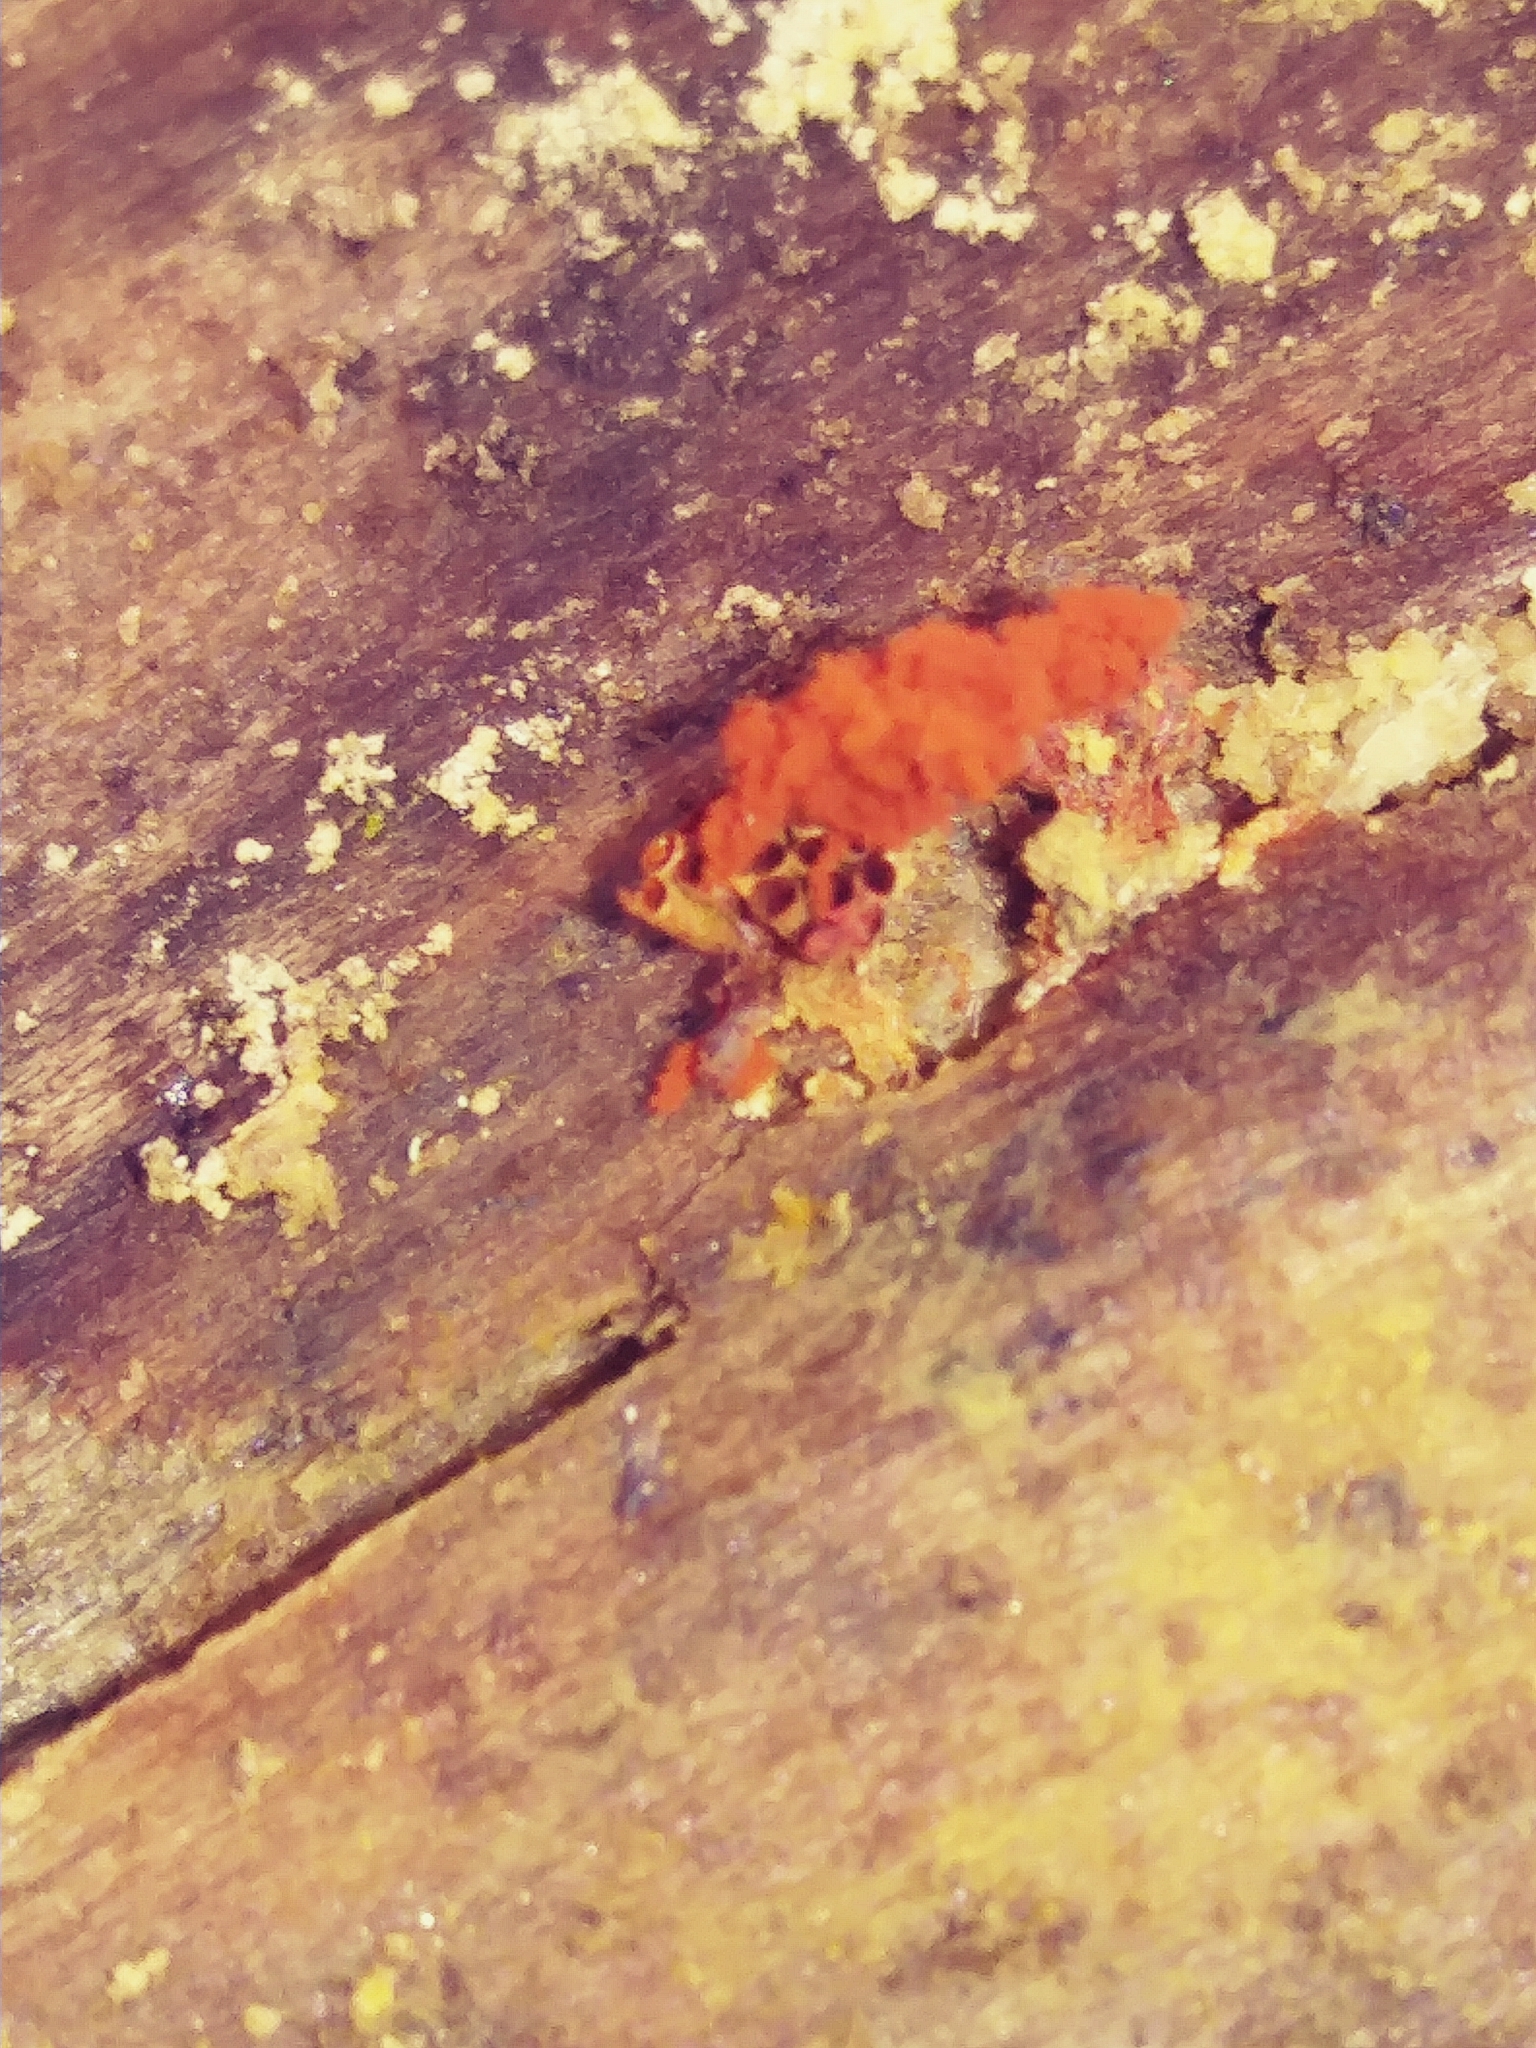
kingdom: Protozoa
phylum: Mycetozoa
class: Myxomycetes
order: Trichiales
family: Trichiaceae
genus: Metatrichia
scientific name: Metatrichia vesparia
